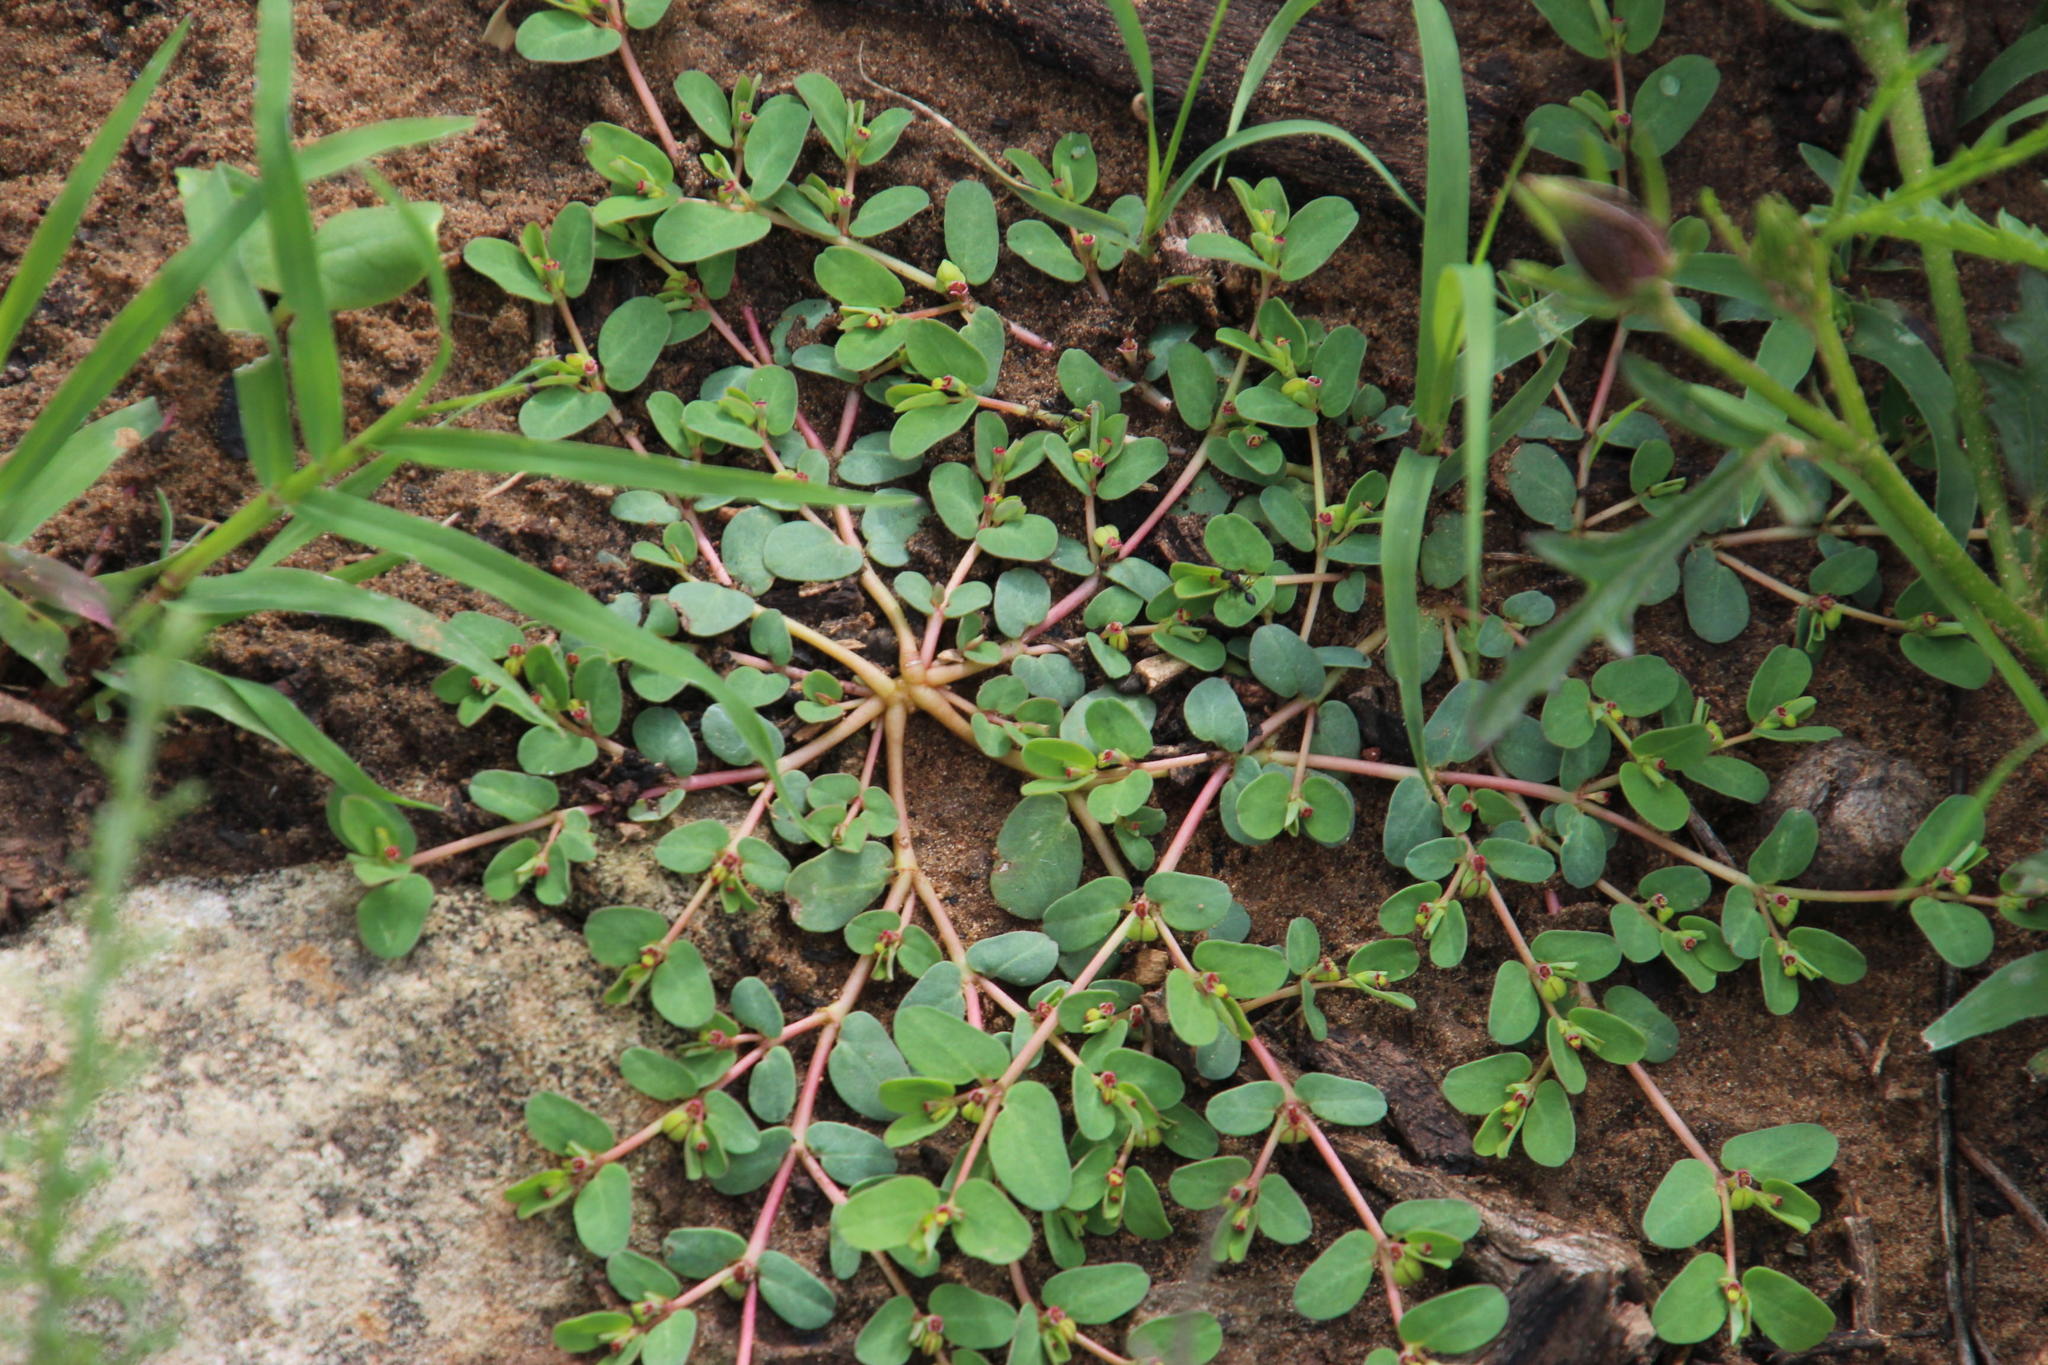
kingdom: Plantae
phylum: Tracheophyta
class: Magnoliopsida
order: Malpighiales
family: Euphorbiaceae
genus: Euphorbia
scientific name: Euphorbia inaequilatera
